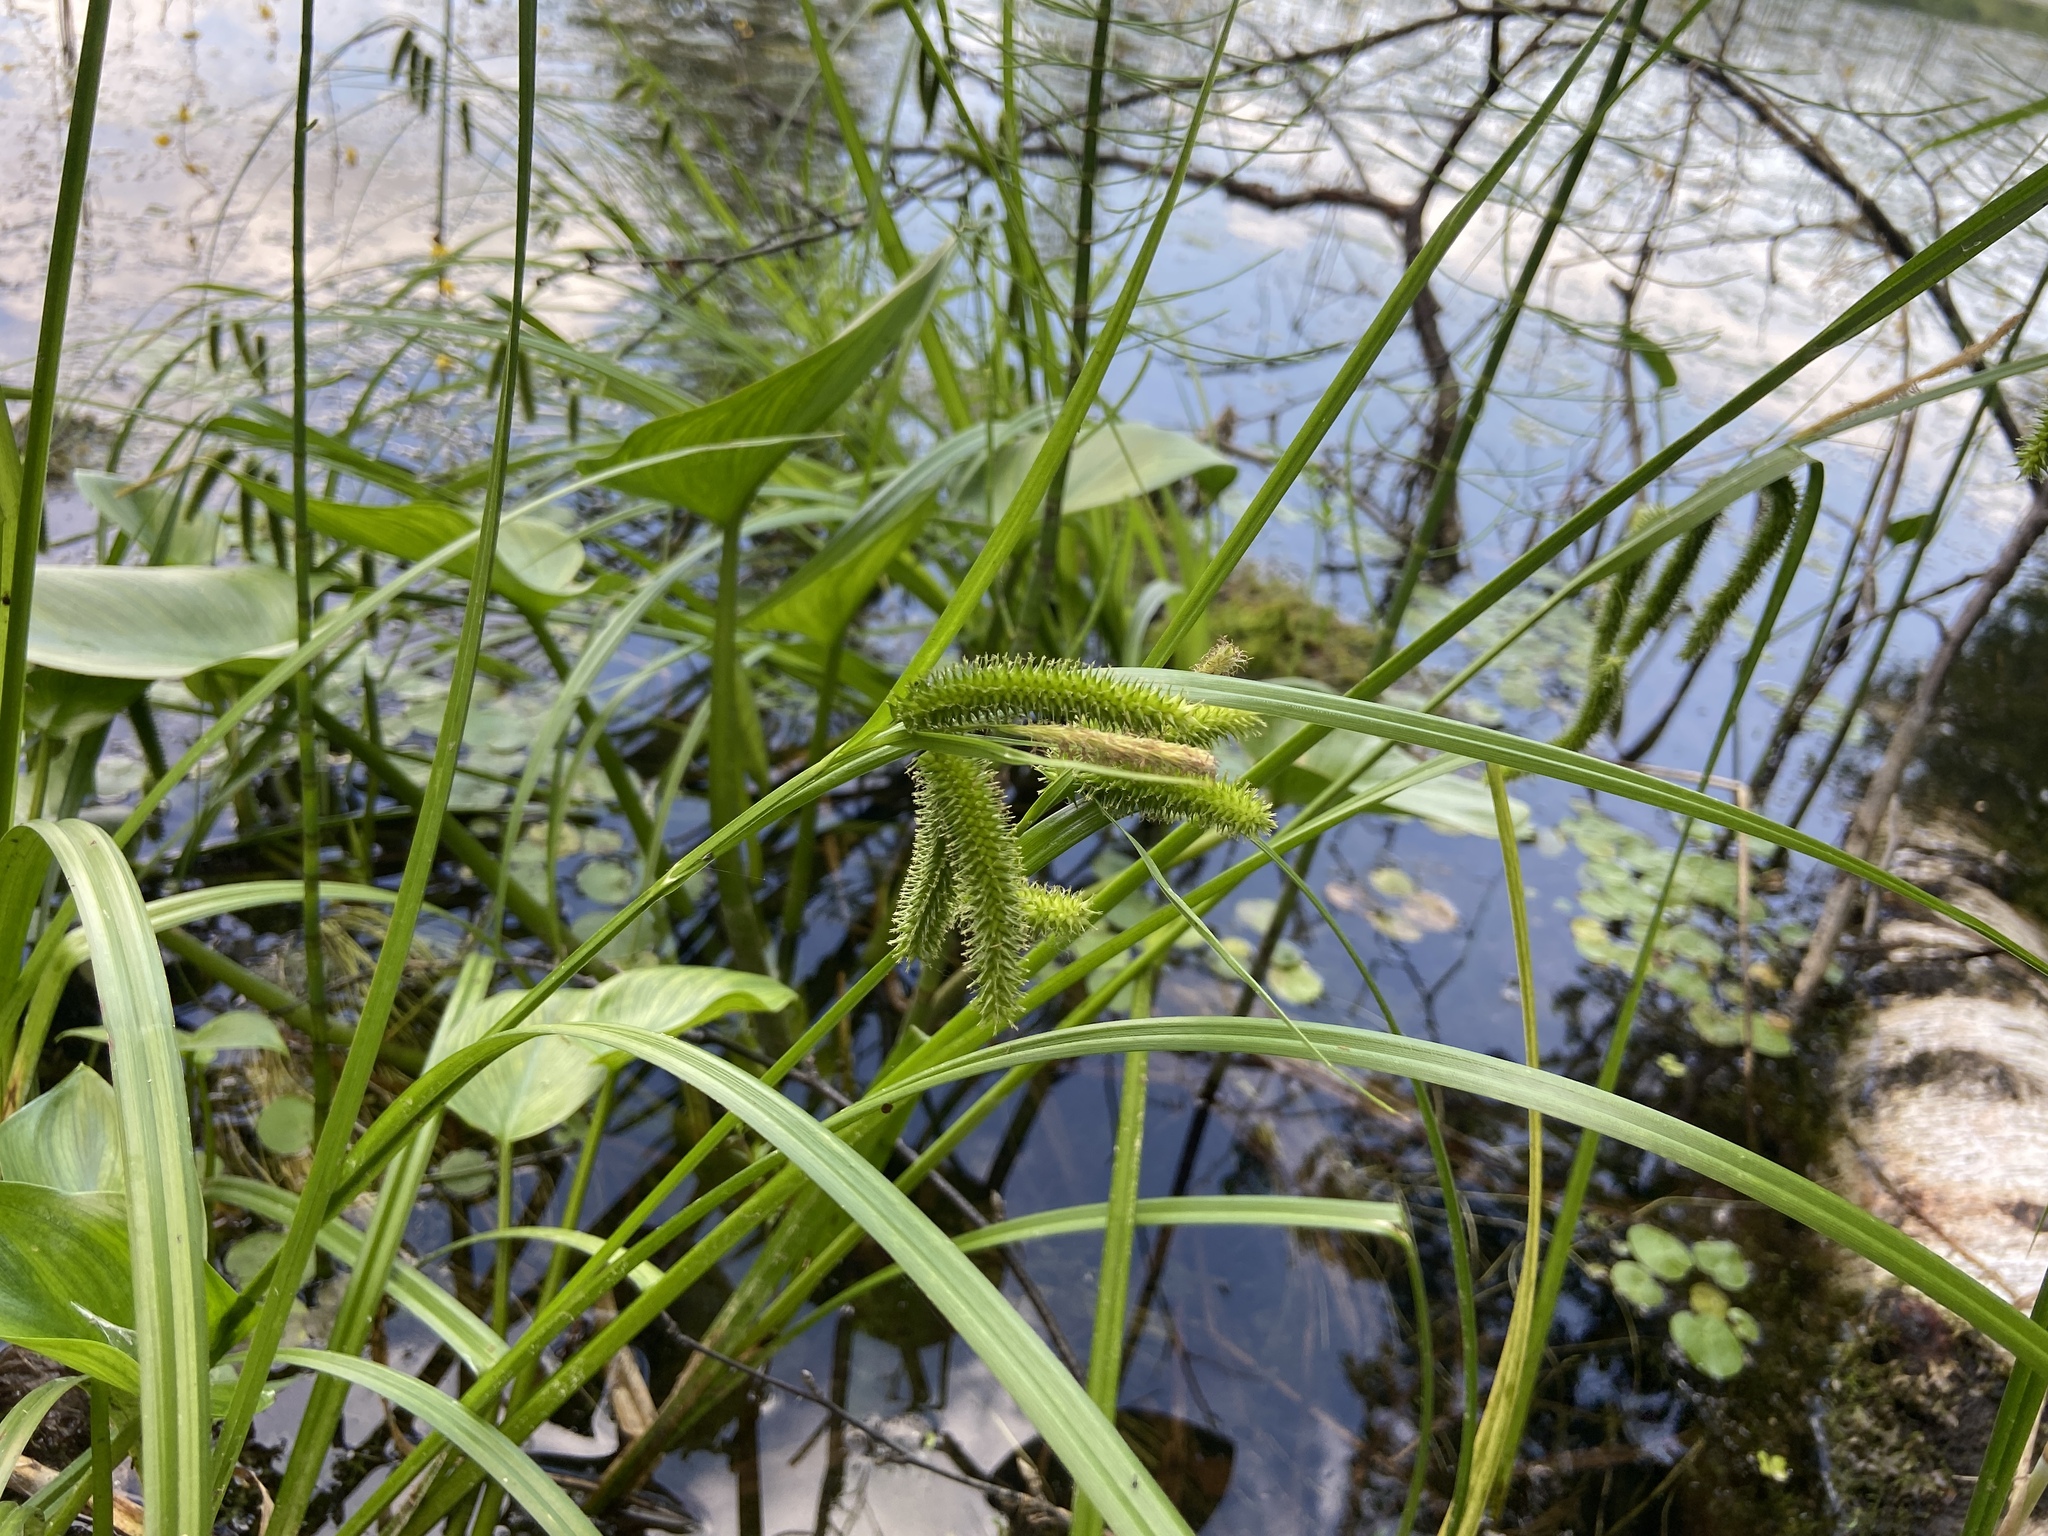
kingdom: Plantae
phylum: Tracheophyta
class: Liliopsida
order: Poales
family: Cyperaceae
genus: Carex
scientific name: Carex pseudocyperus
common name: Cyperus sedge
